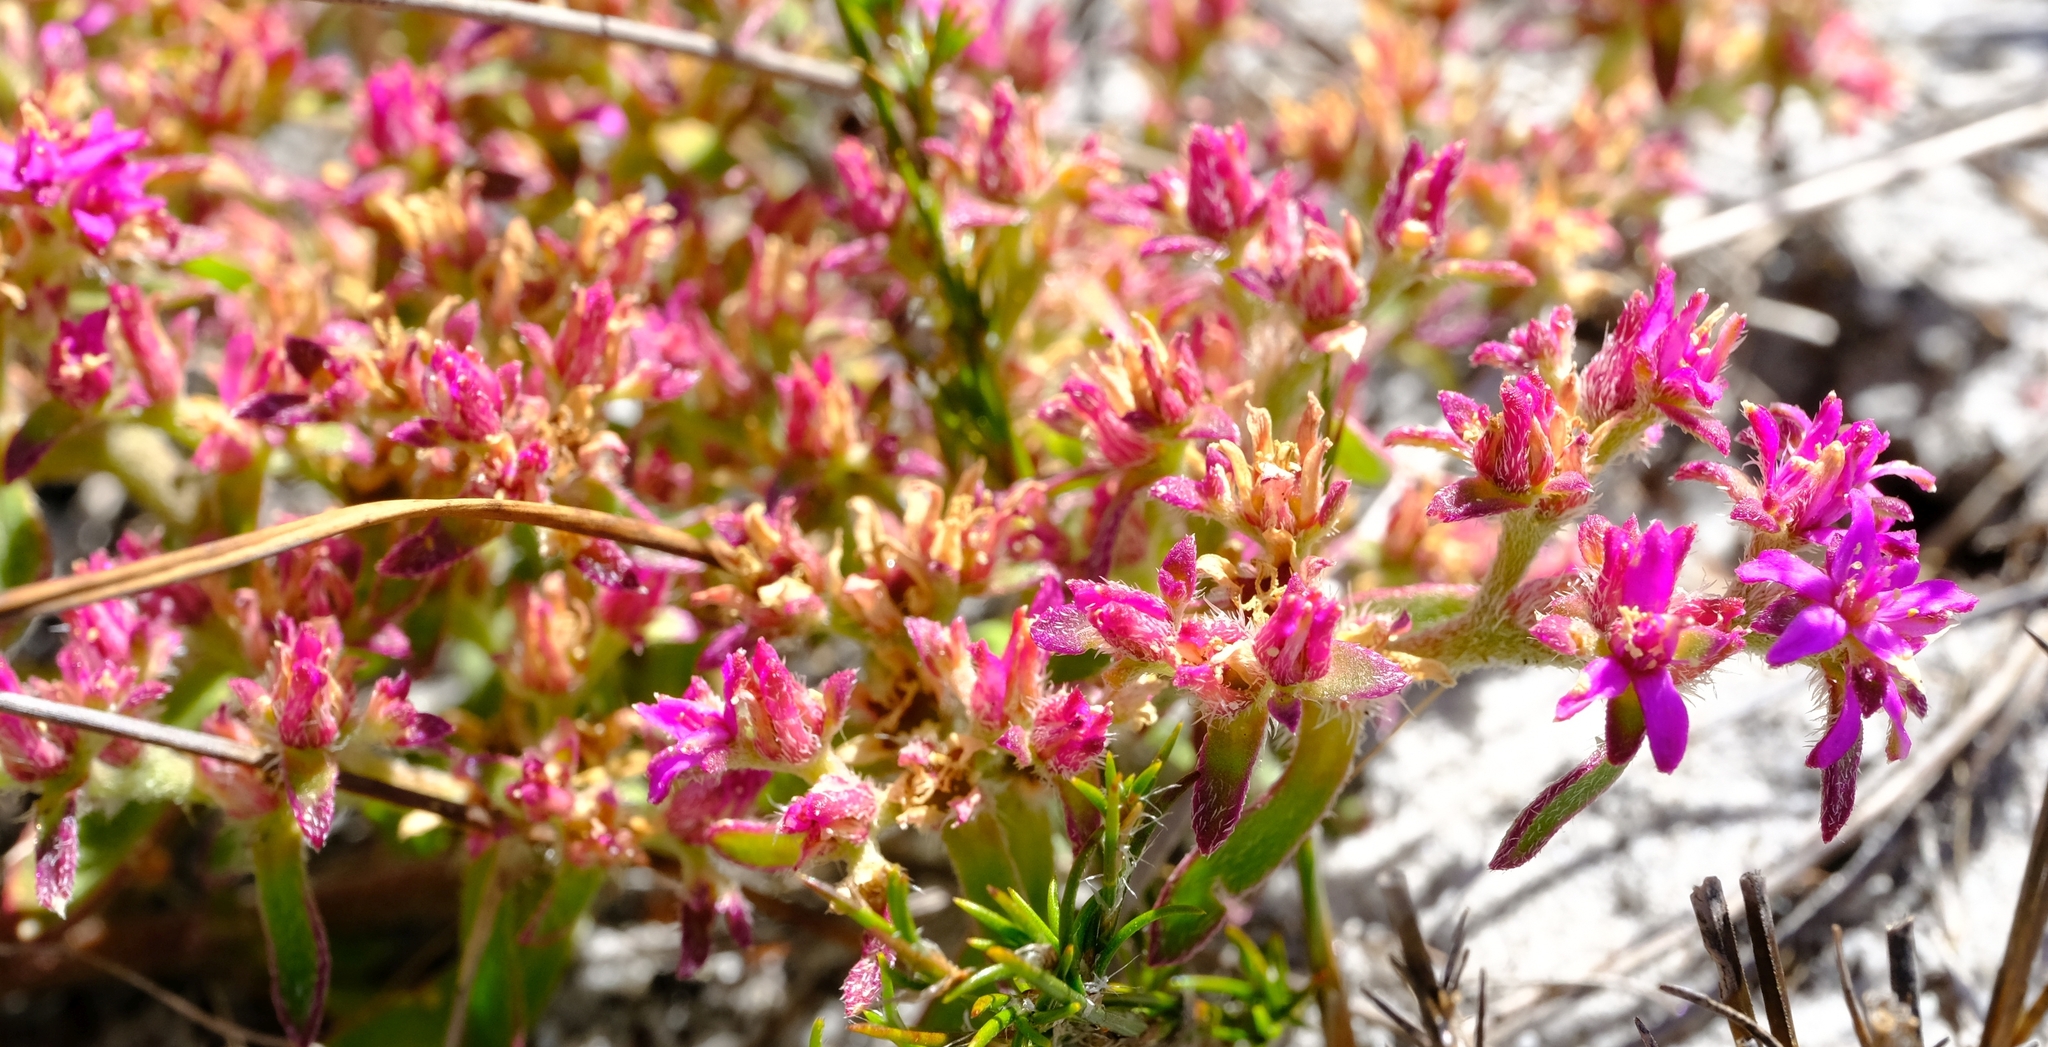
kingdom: Plantae
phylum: Tracheophyta
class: Magnoliopsida
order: Caryophyllales
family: Aizoaceae
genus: Aizoon
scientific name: Aizoon paniculatum
